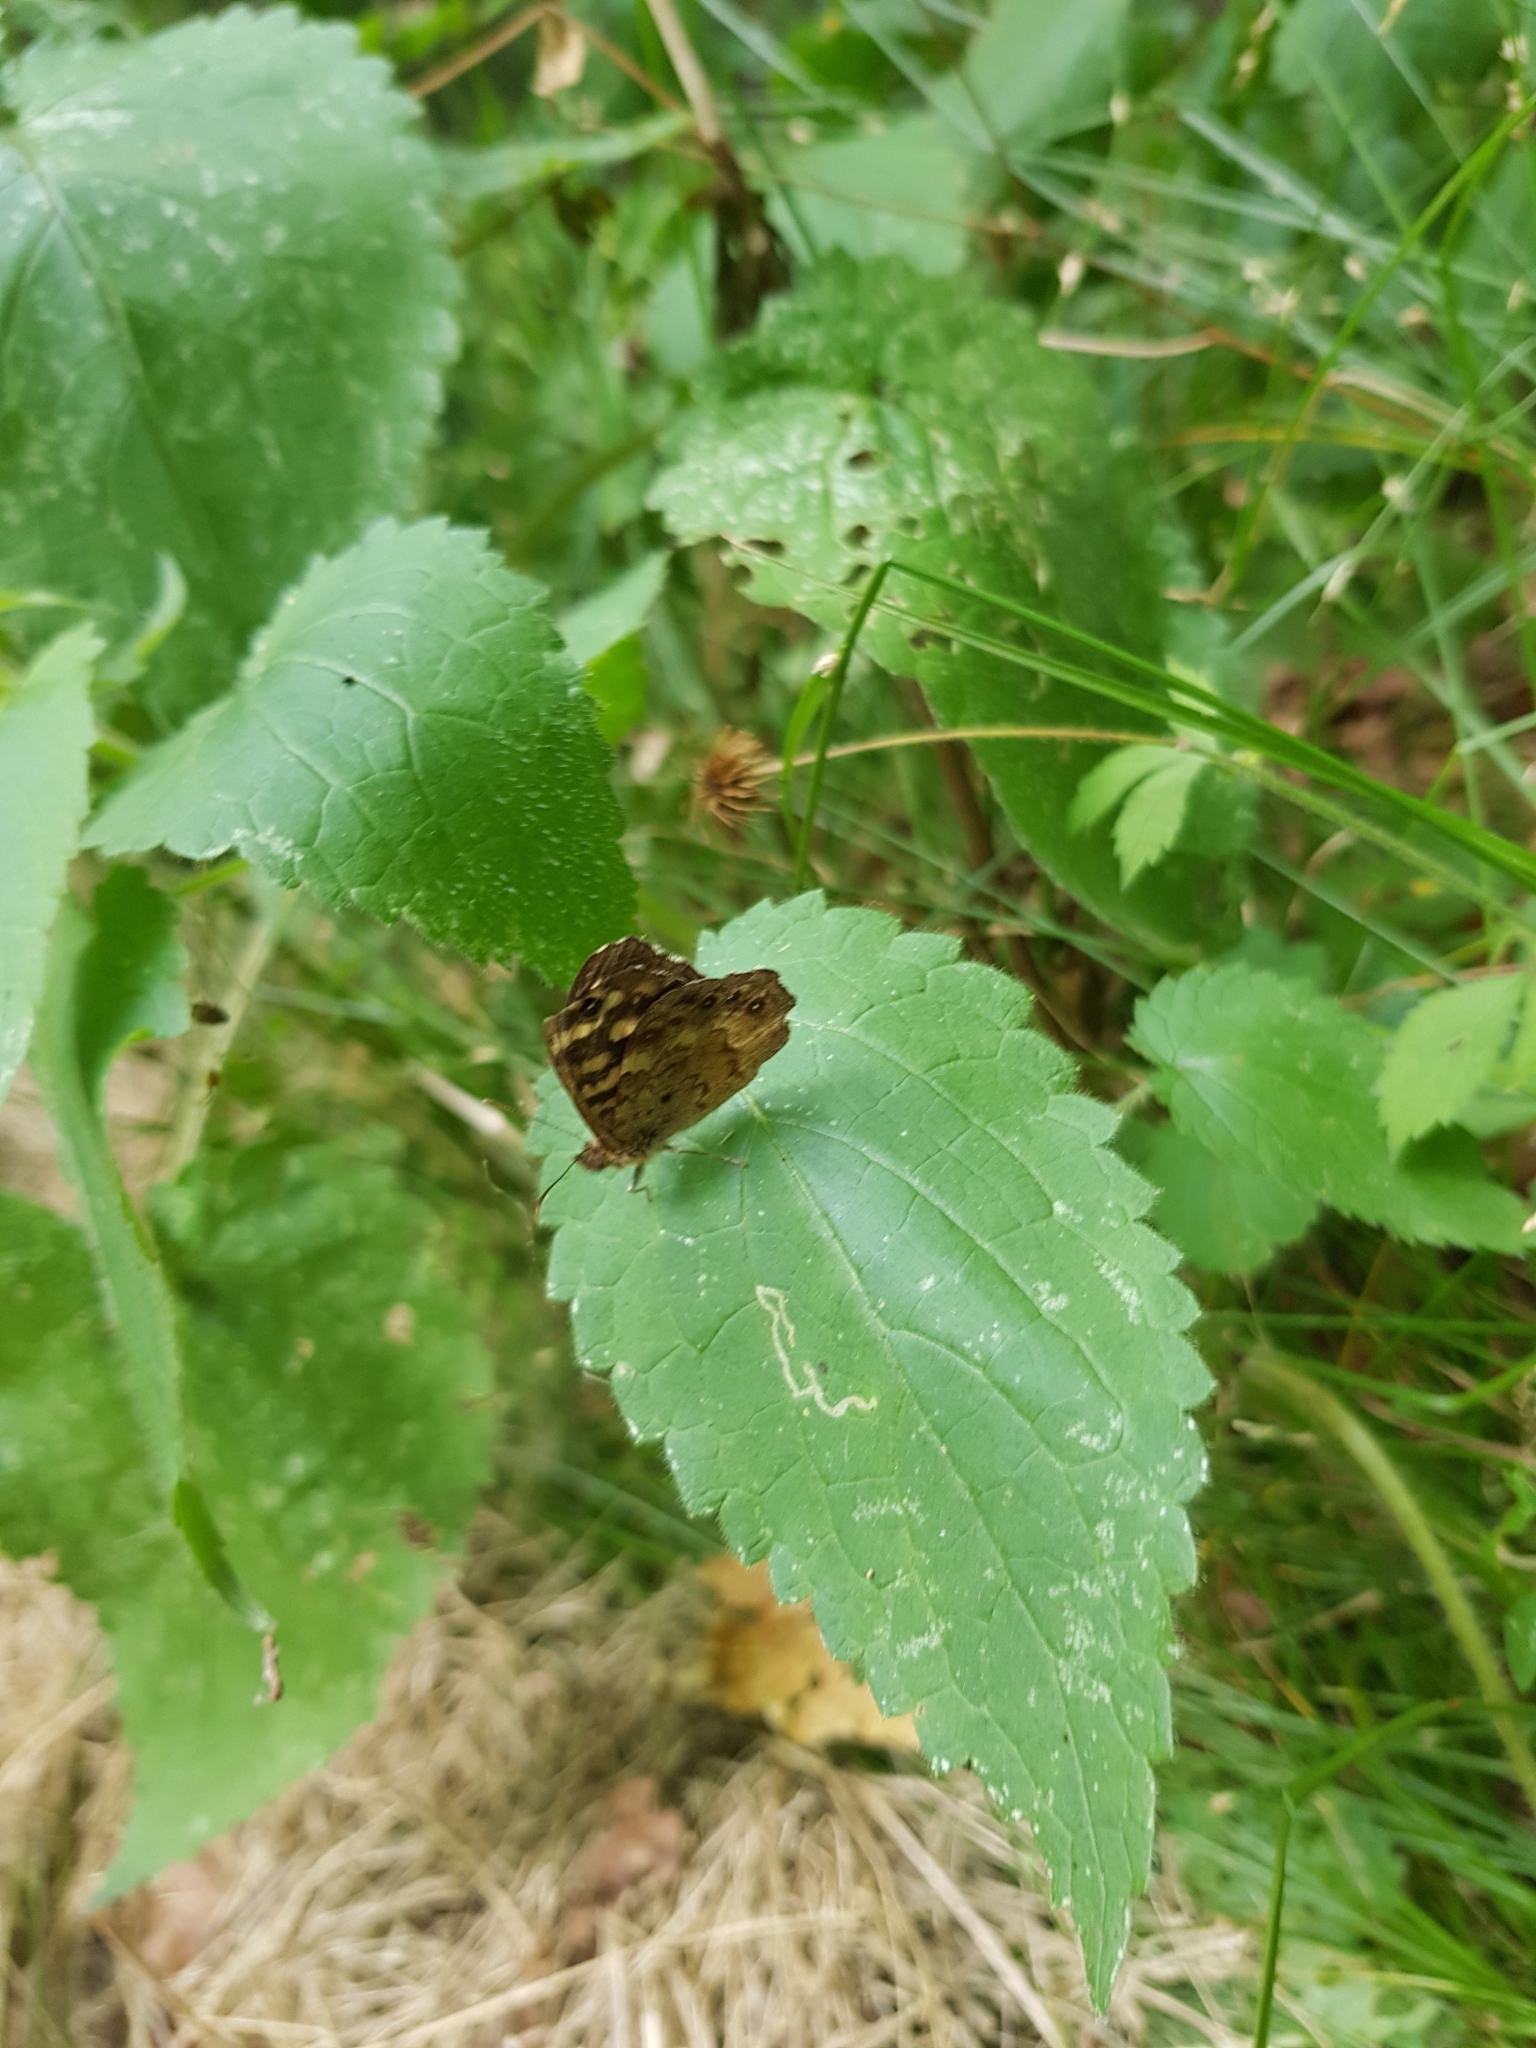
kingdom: Animalia
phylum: Arthropoda
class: Insecta
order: Lepidoptera
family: Nymphalidae
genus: Pararge
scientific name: Pararge aegeria
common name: Speckled wood
